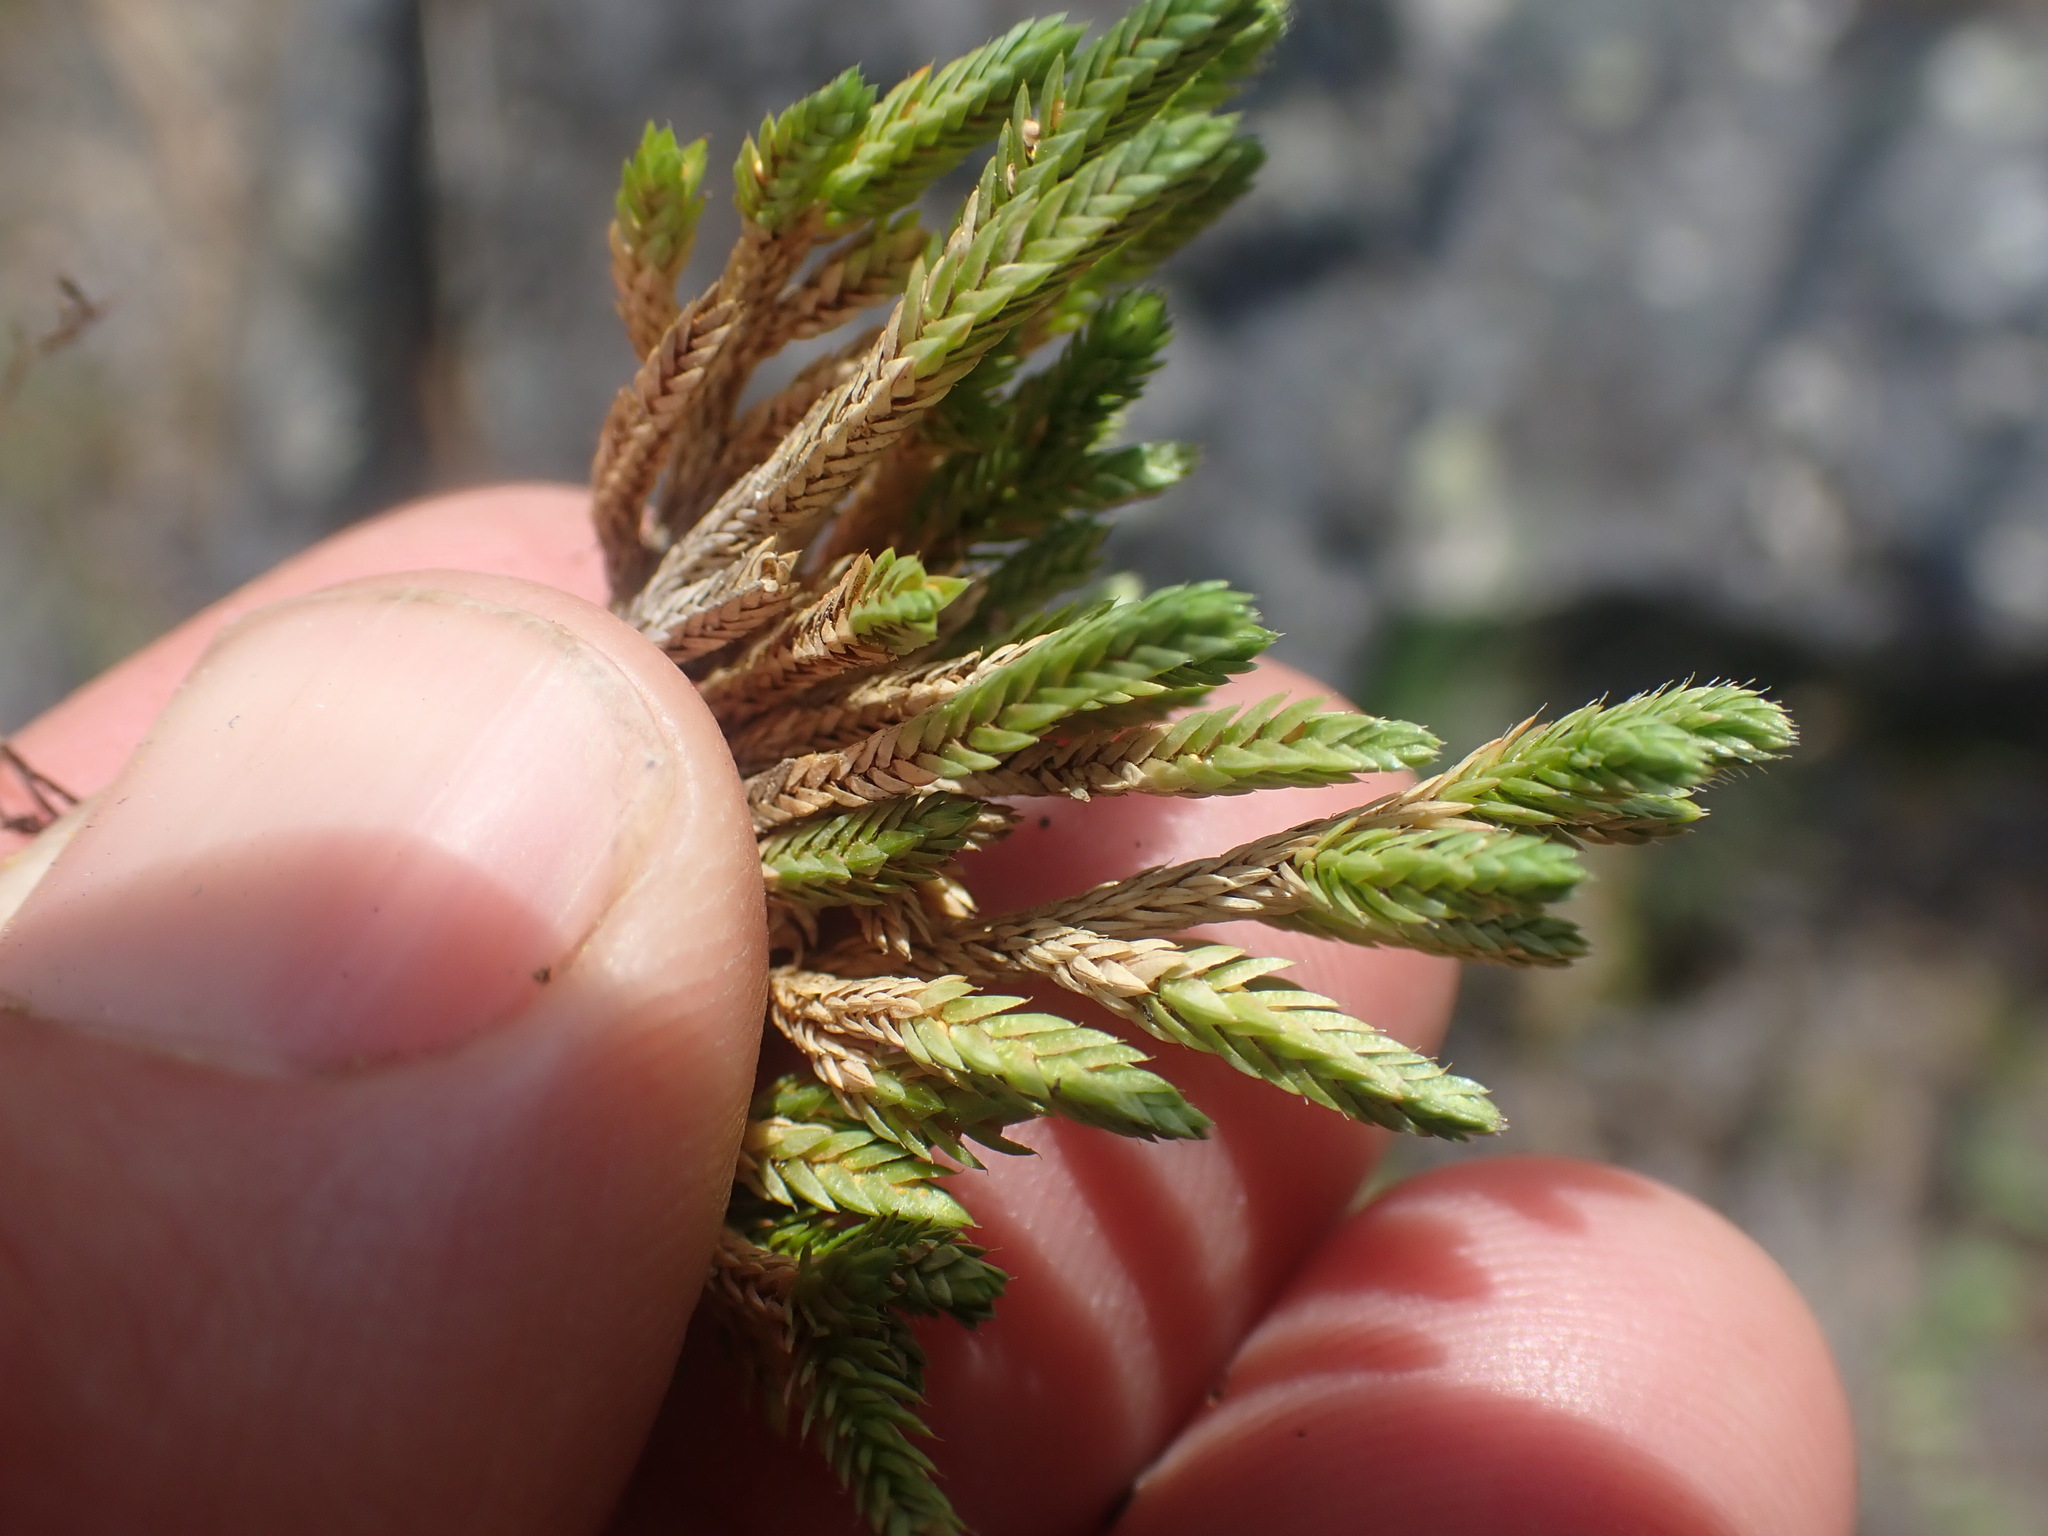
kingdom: Plantae
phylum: Tracheophyta
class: Lycopodiopsida
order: Selaginellales
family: Selaginellaceae
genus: Selaginella
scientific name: Selaginella wallacei
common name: Wallace's selaginella
